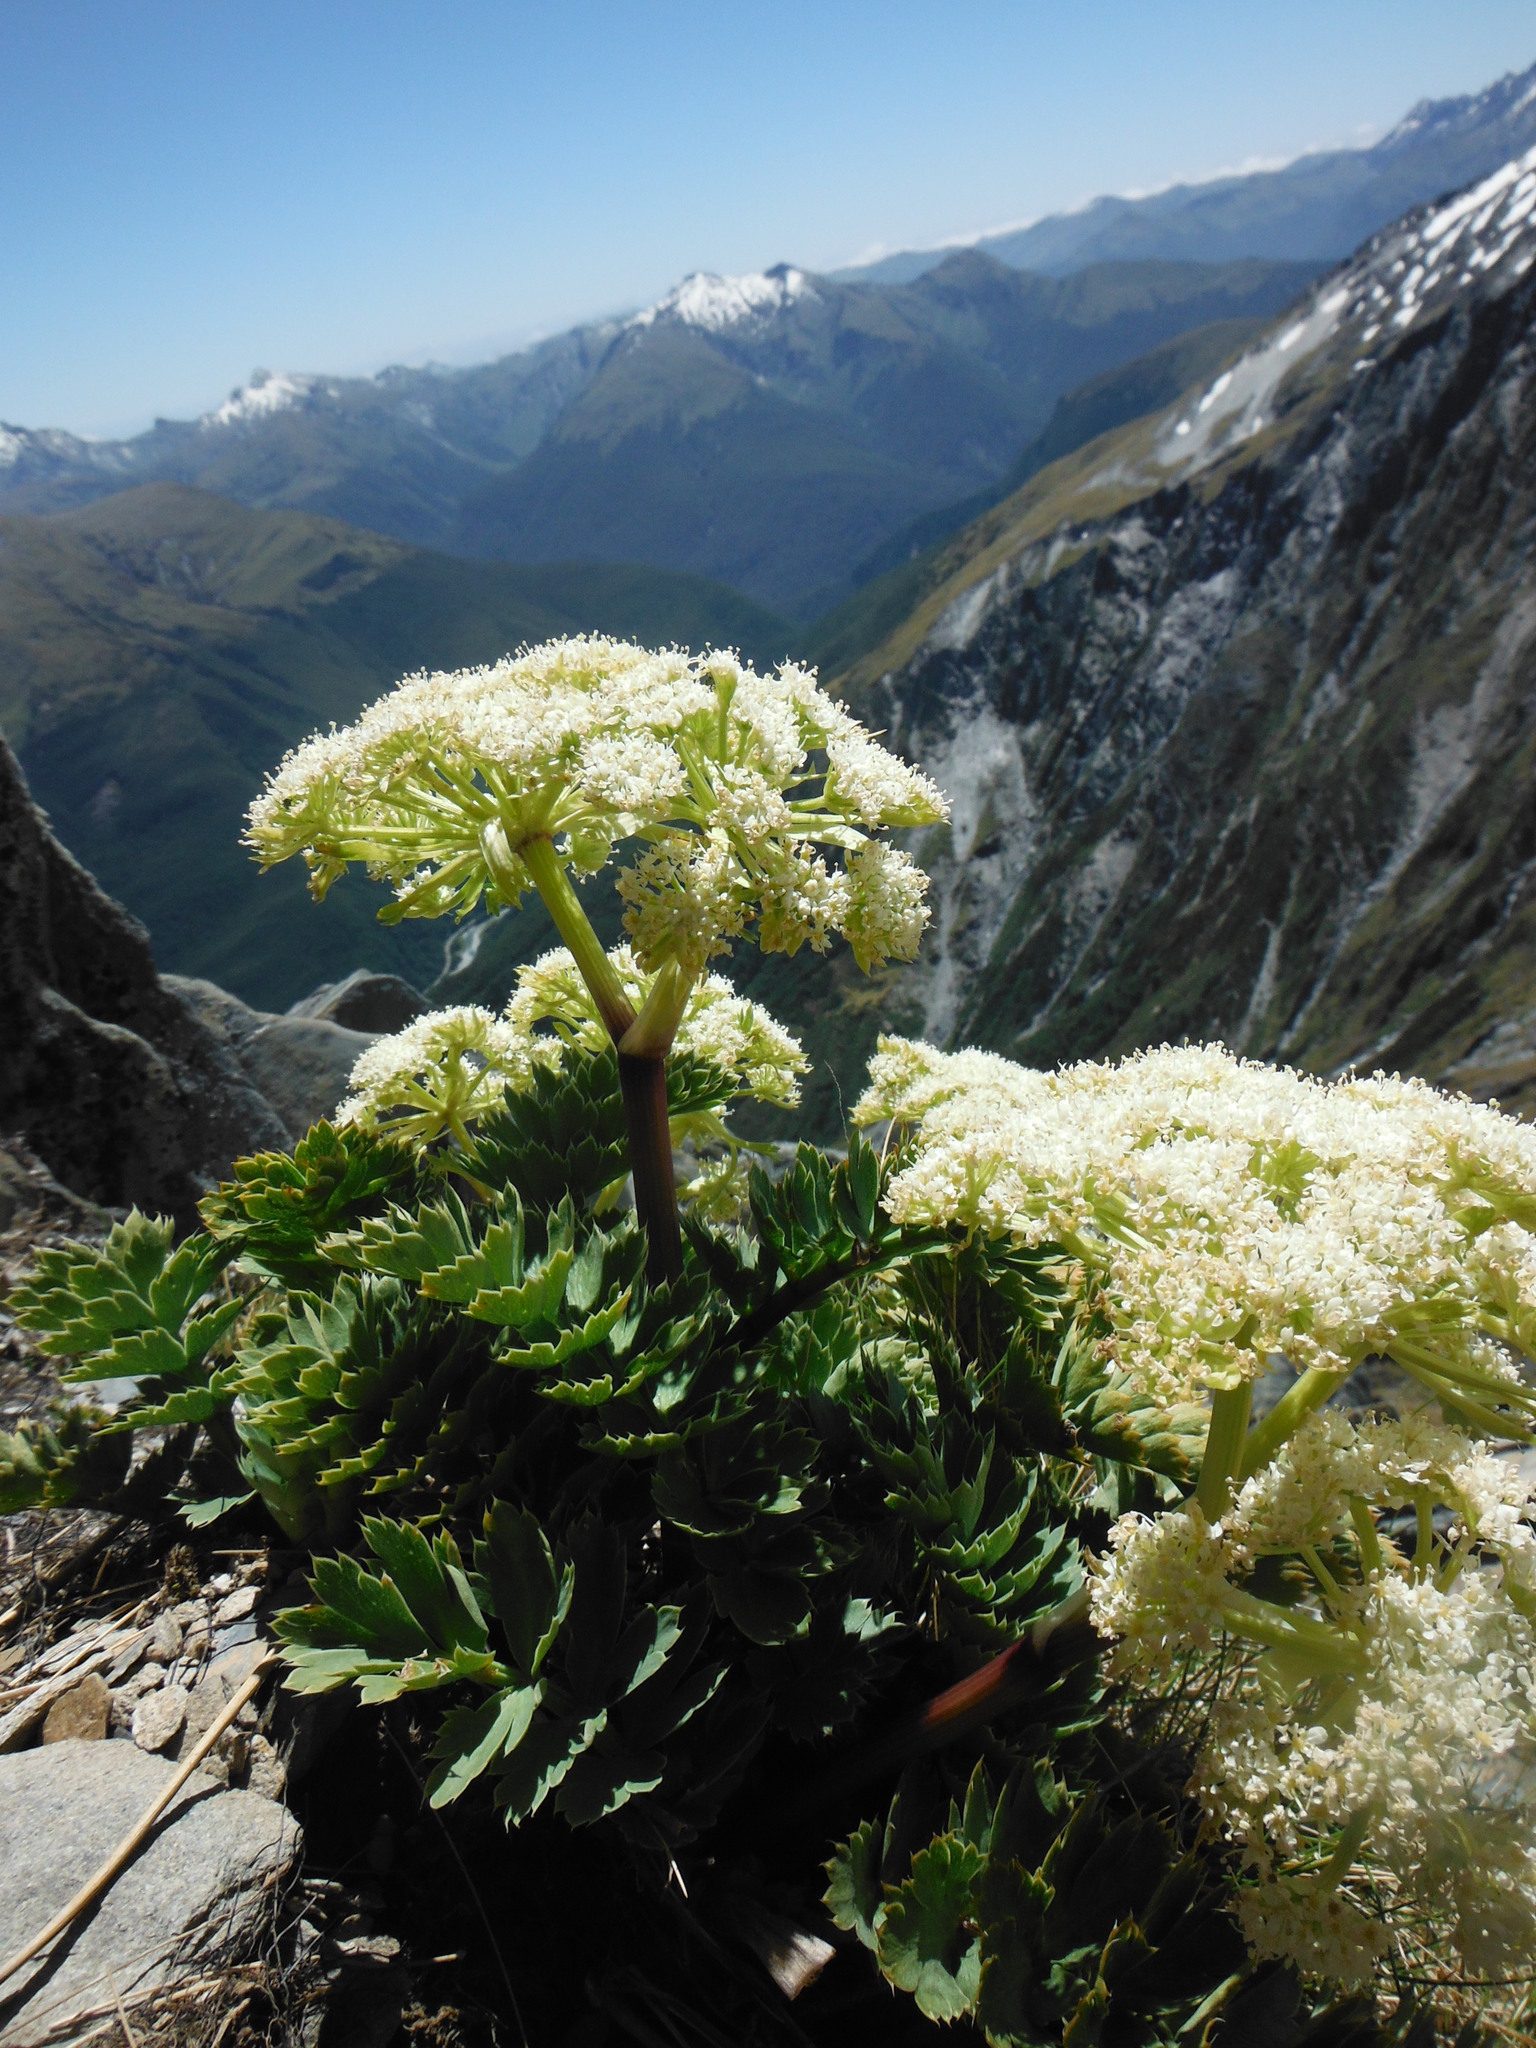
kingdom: Plantae
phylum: Tracheophyta
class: Magnoliopsida
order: Apiales
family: Apiaceae
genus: Anisotome
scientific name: Anisotome pilifera
